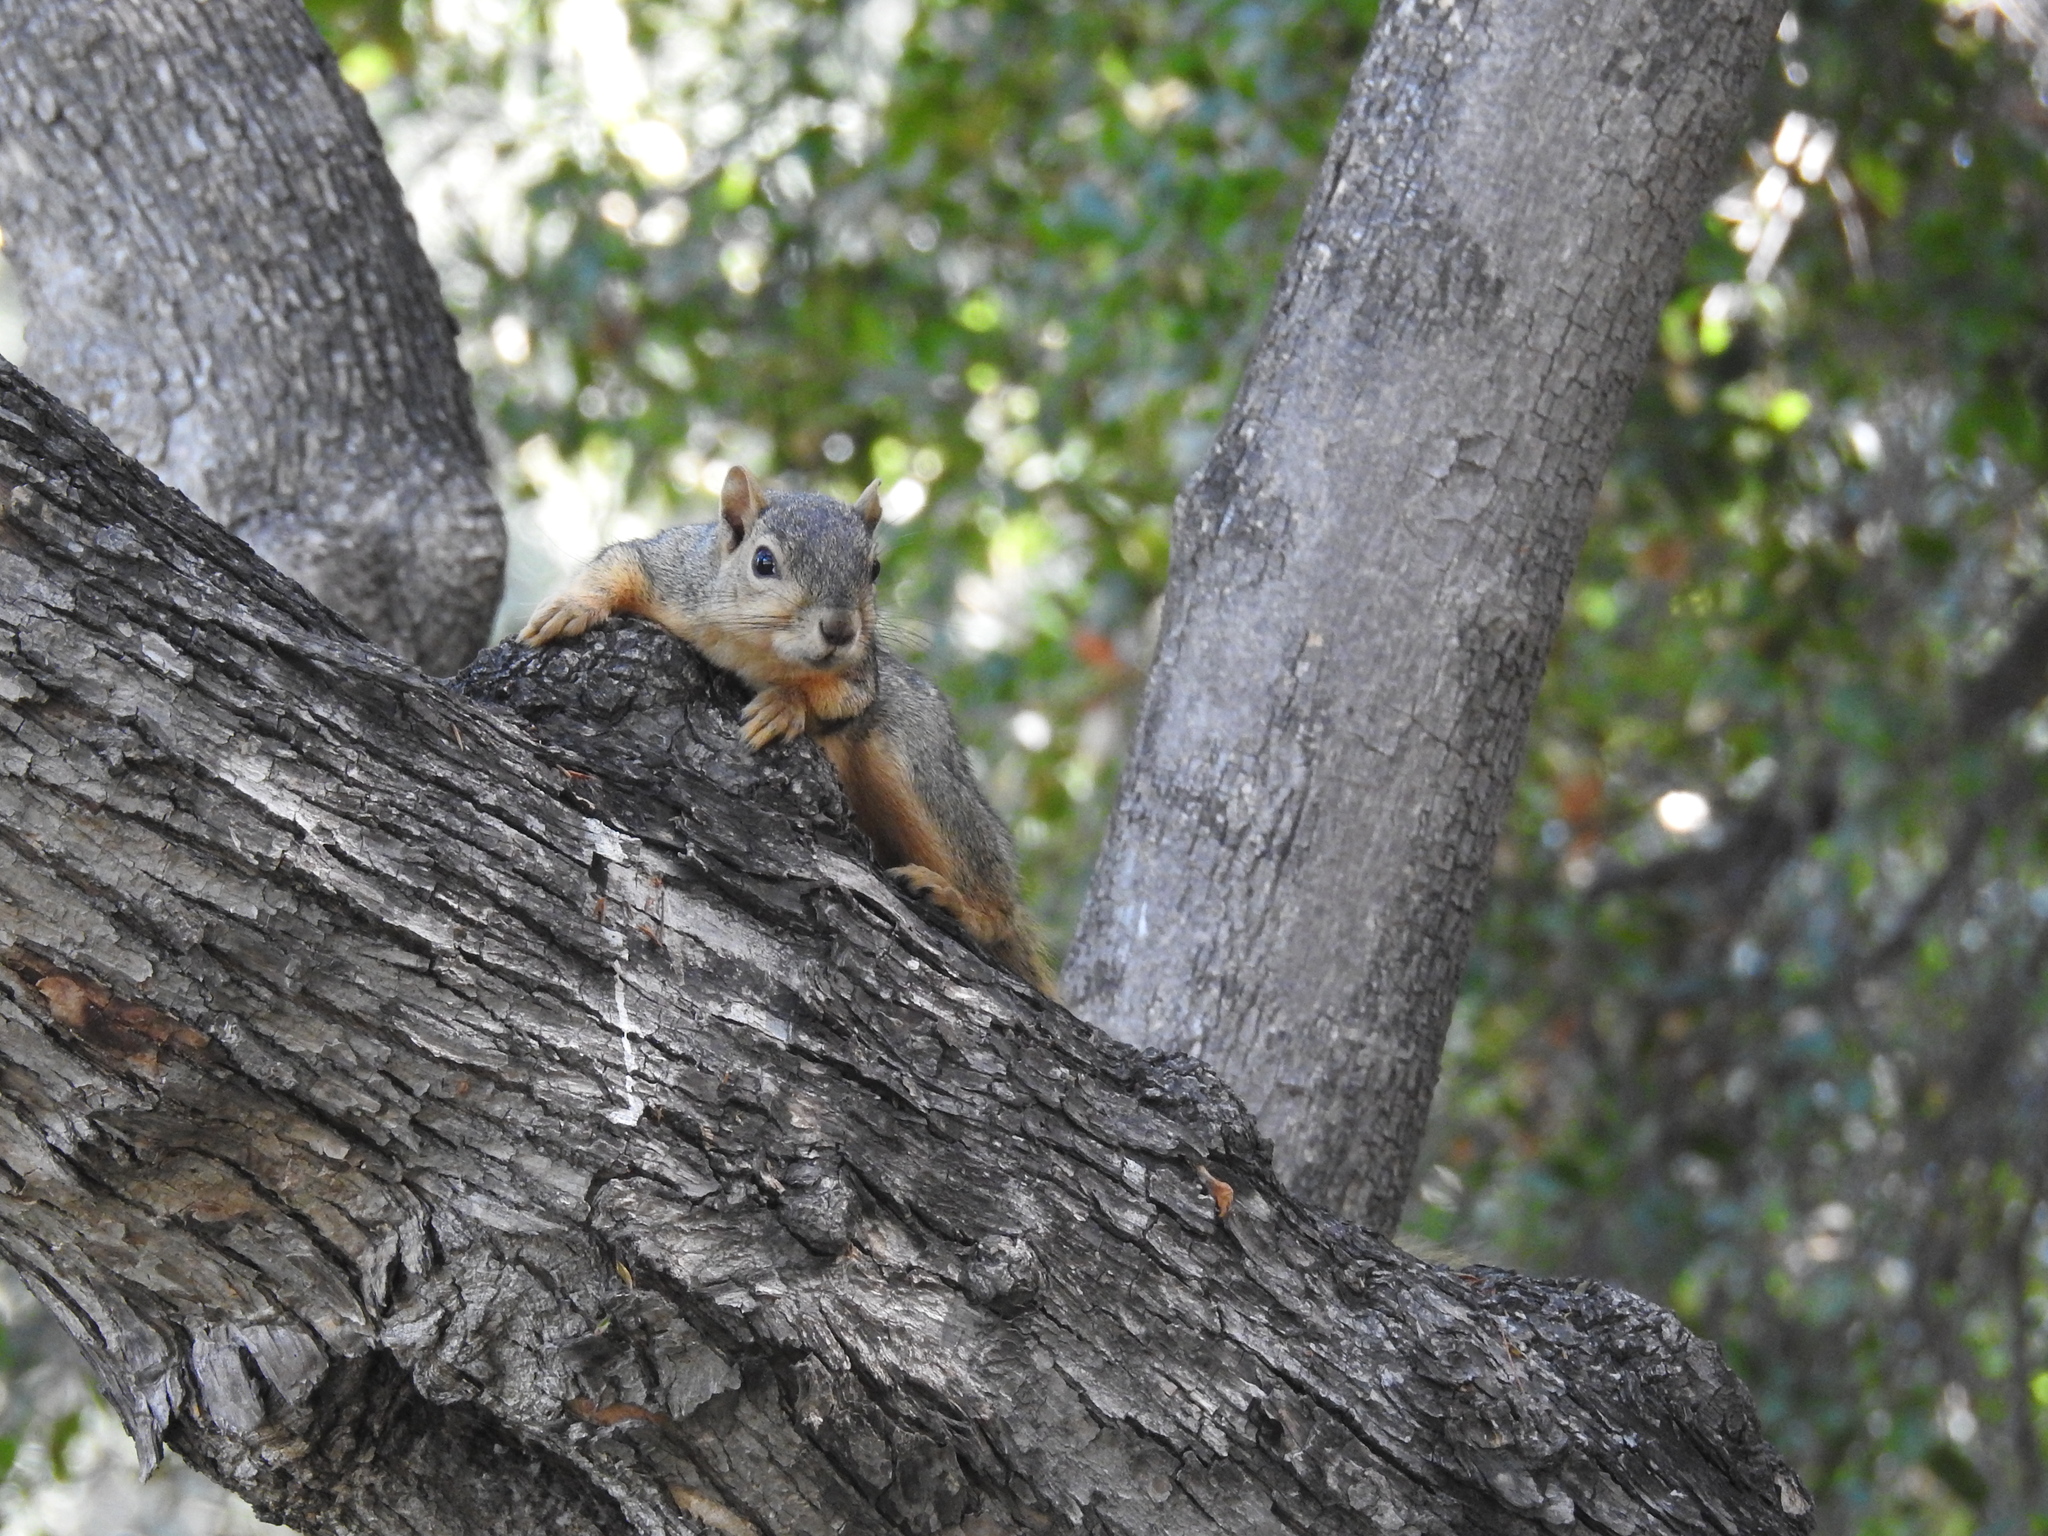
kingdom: Animalia
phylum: Chordata
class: Mammalia
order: Rodentia
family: Sciuridae
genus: Sciurus
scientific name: Sciurus niger
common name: Fox squirrel
